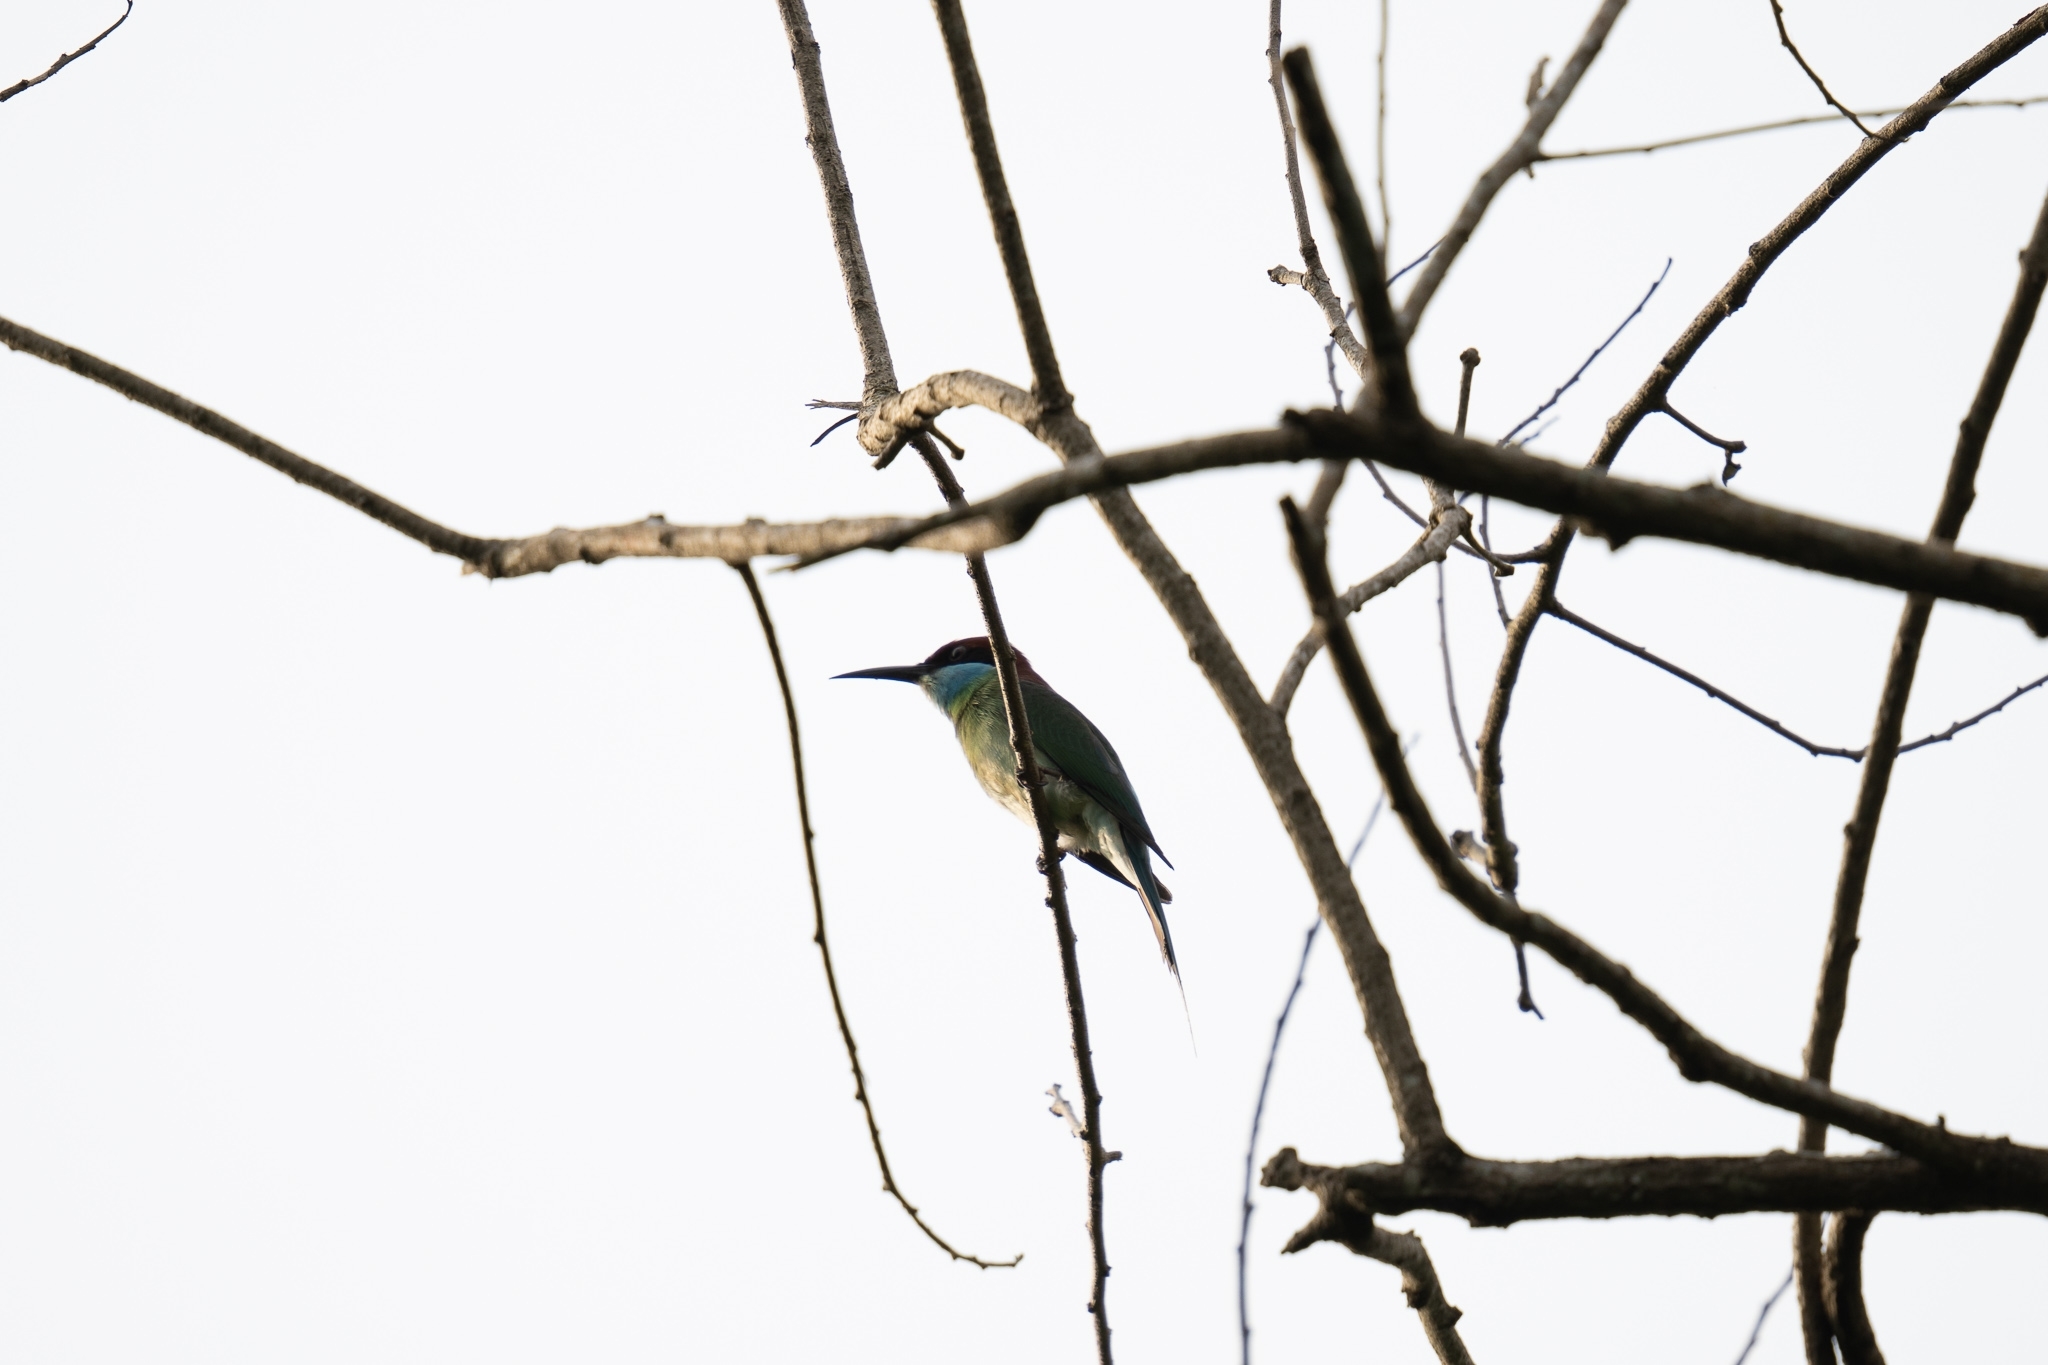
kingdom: Animalia
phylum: Chordata
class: Aves
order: Coraciiformes
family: Meropidae
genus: Merops
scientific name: Merops viridis
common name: Blue-throated bee-eater
